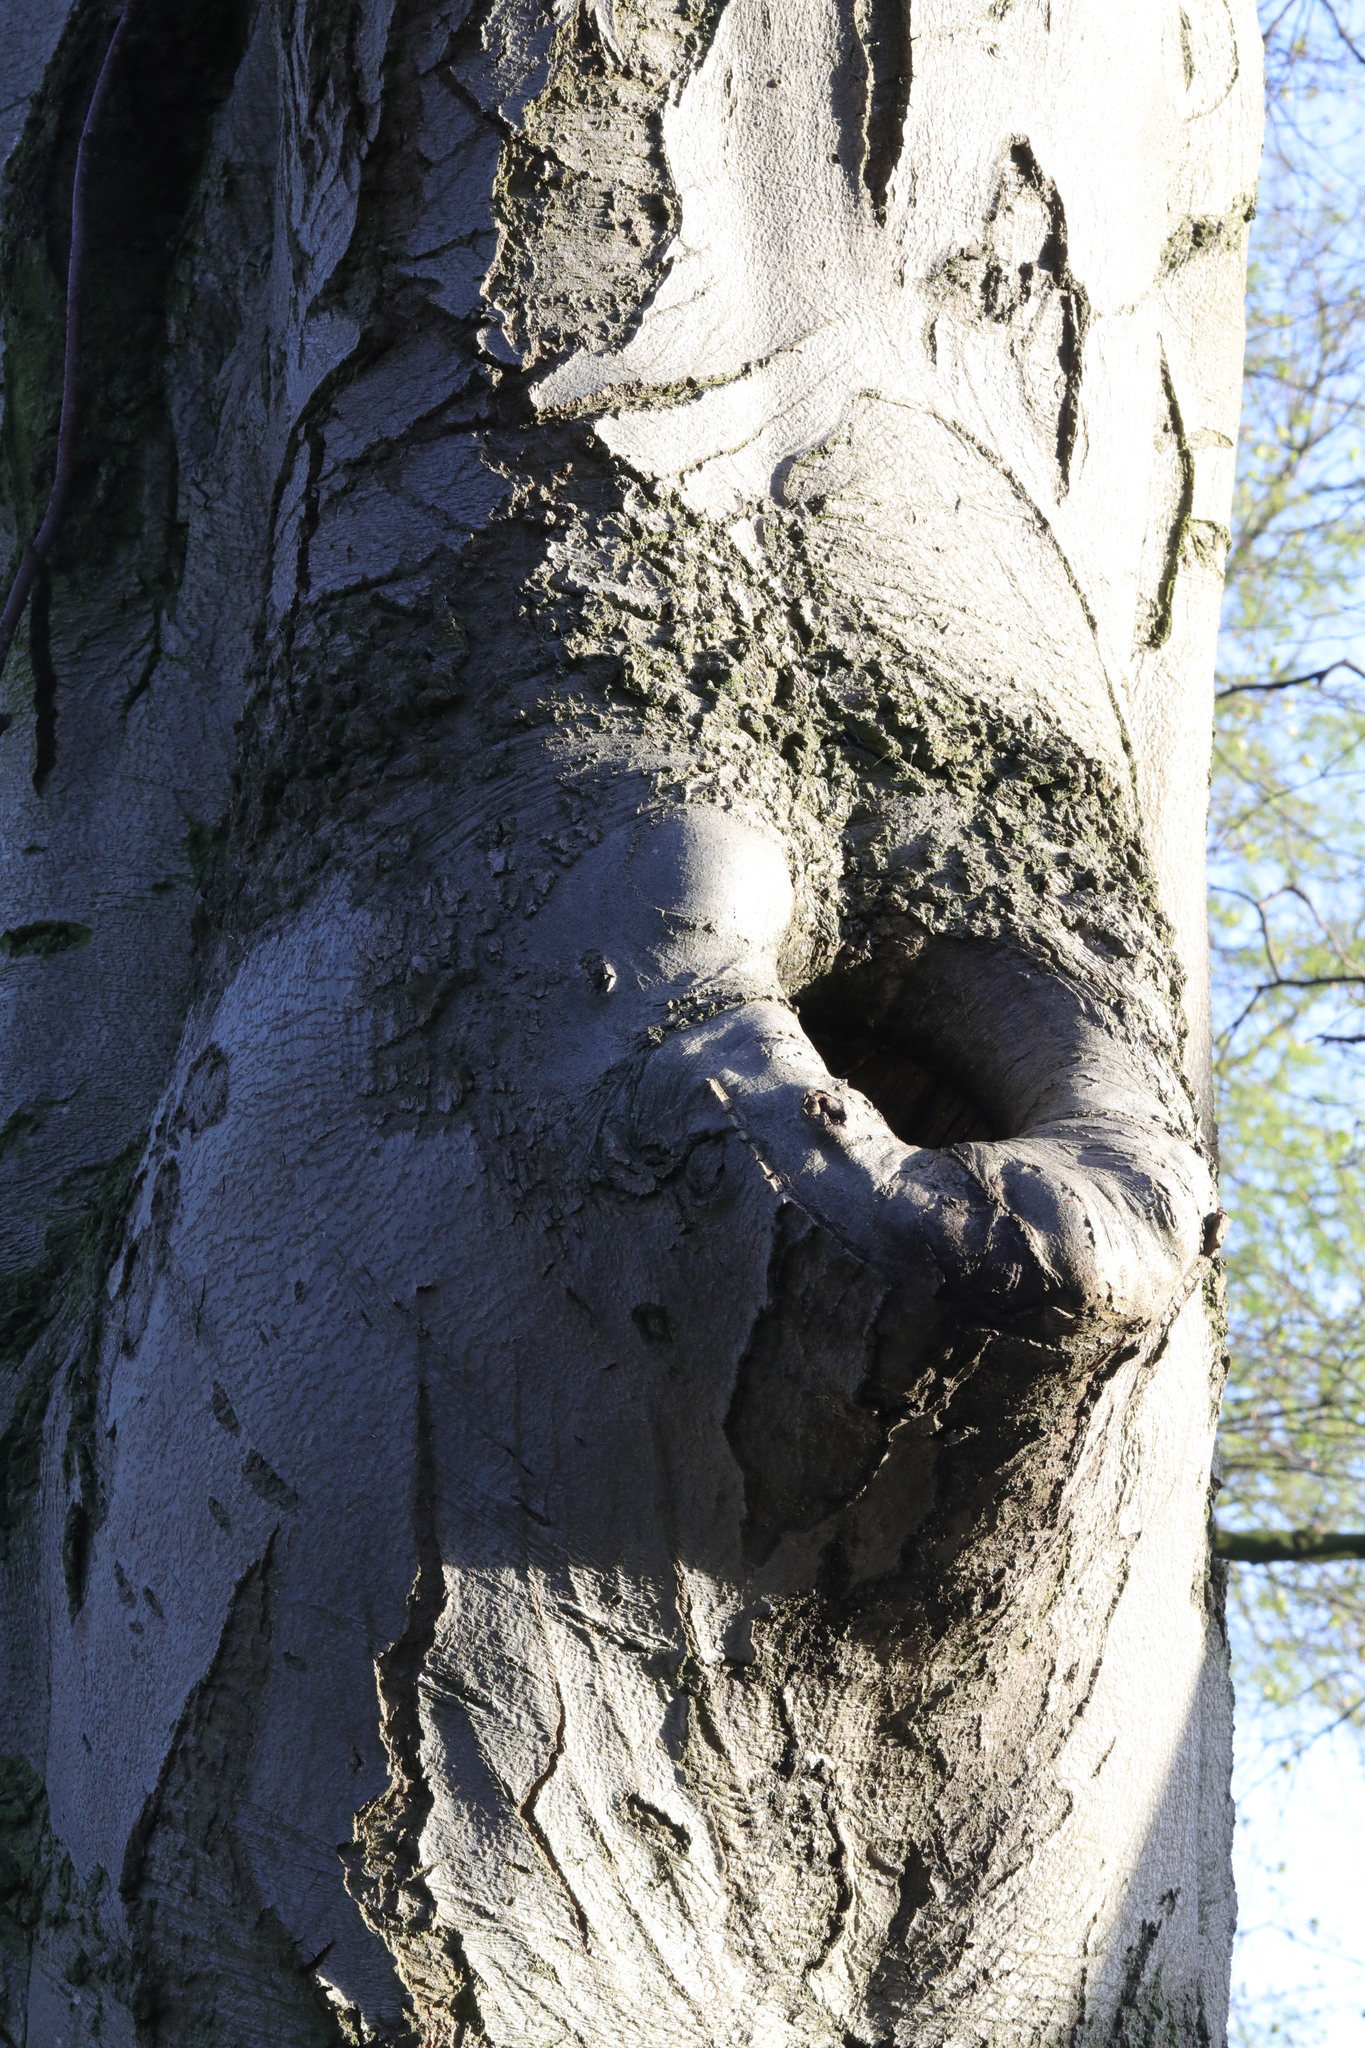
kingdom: Plantae
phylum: Tracheophyta
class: Magnoliopsida
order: Fagales
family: Fagaceae
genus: Fagus
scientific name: Fagus sylvatica
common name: Beech
